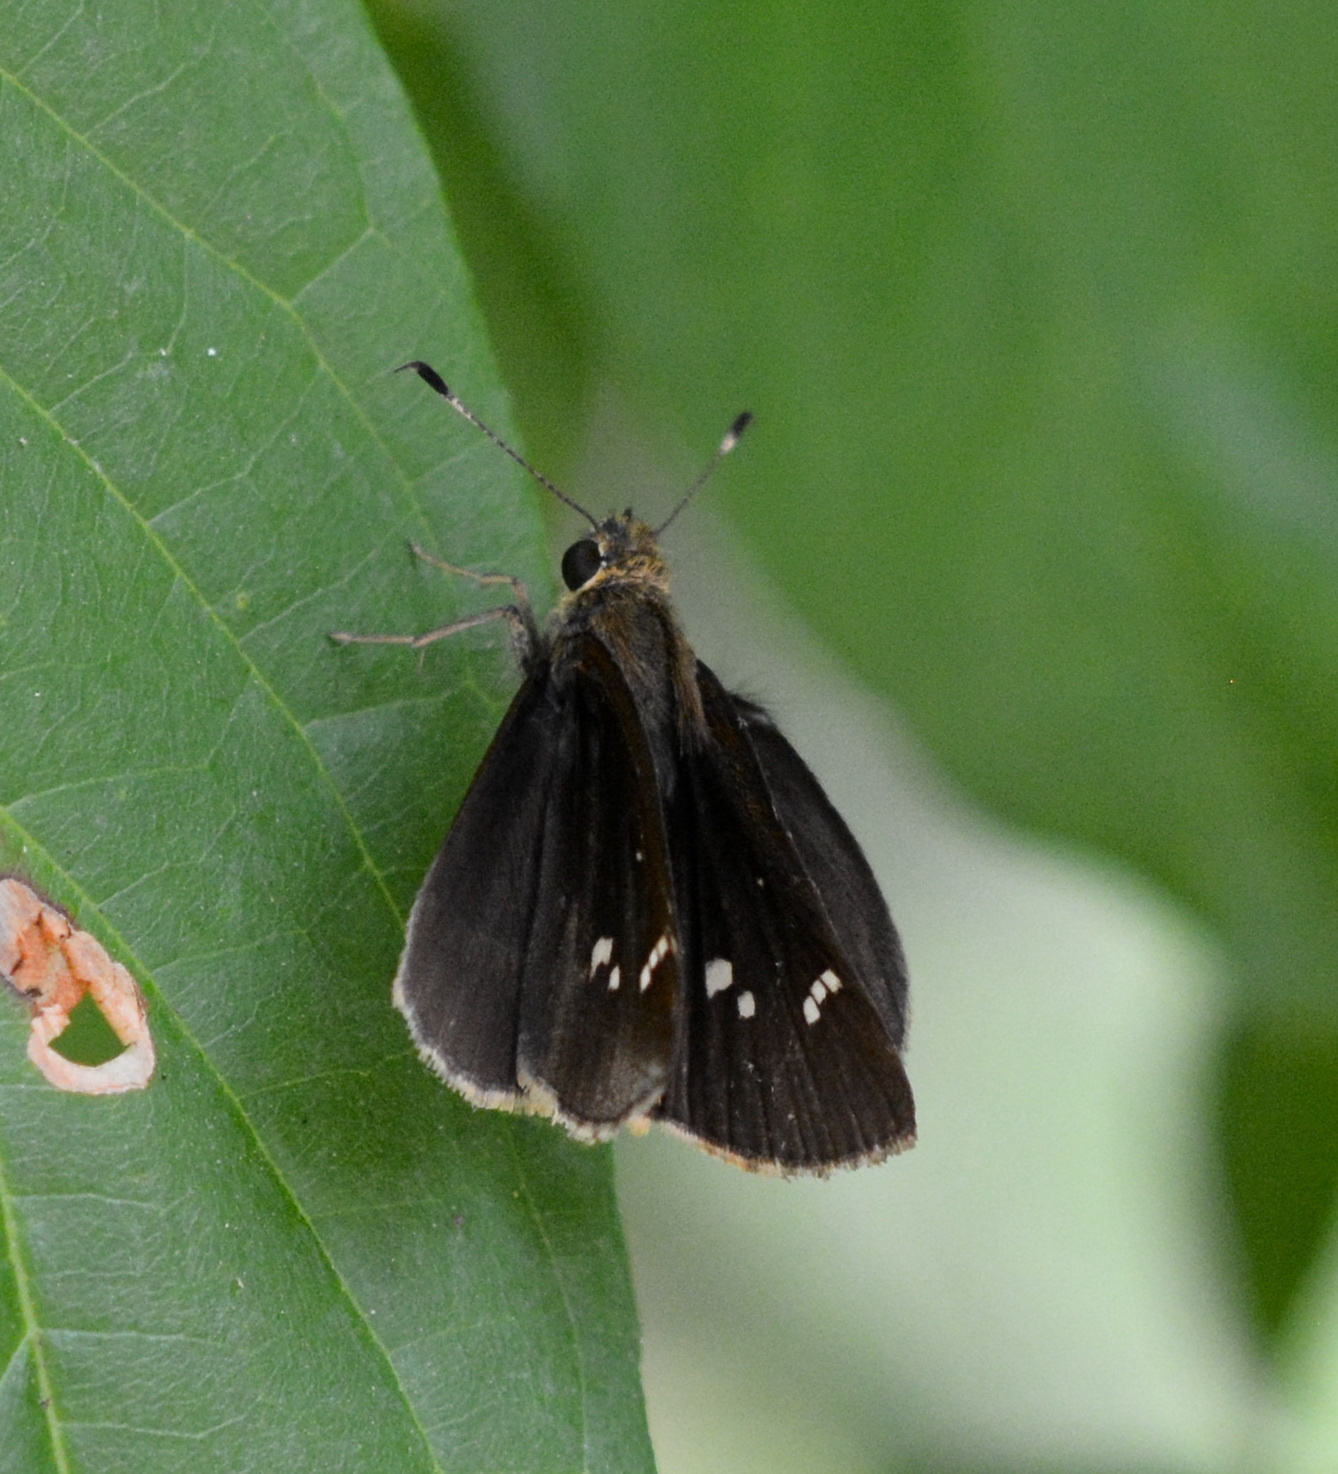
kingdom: Animalia
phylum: Arthropoda
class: Insecta
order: Lepidoptera
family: Hesperiidae
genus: Lerema
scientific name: Lerema accius
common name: Clouded skipper
